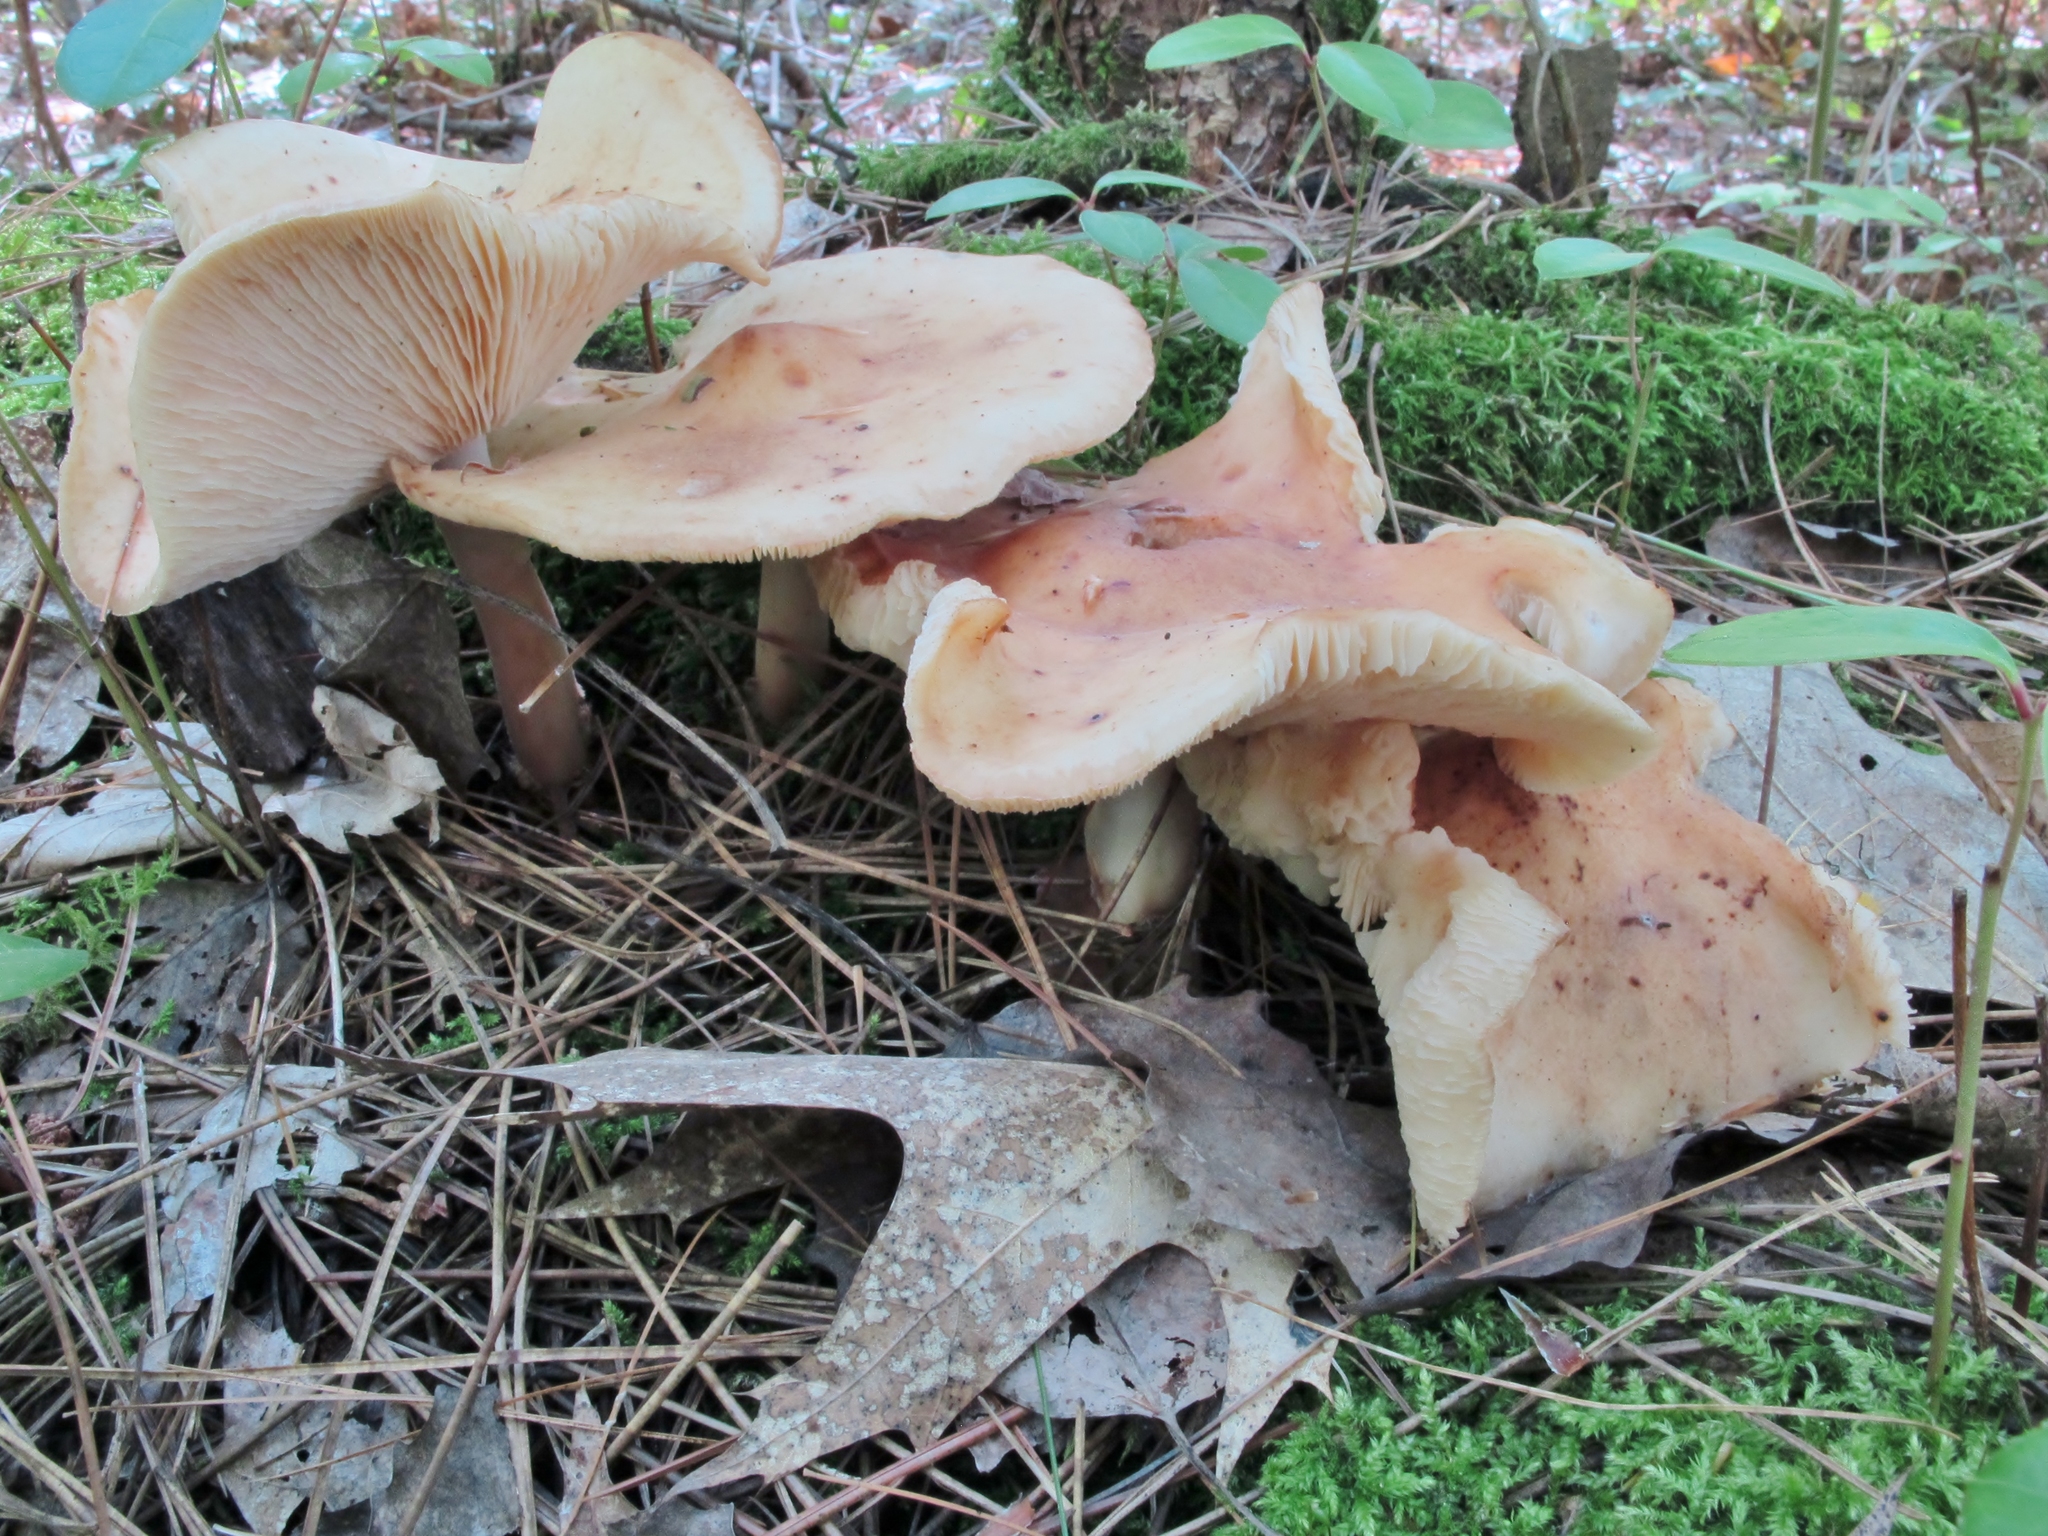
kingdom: Fungi
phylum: Basidiomycota
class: Agaricomycetes
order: Agaricales
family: Omphalotaceae
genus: Rhodocollybia
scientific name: Rhodocollybia maculata
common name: Spotted tough-shank
